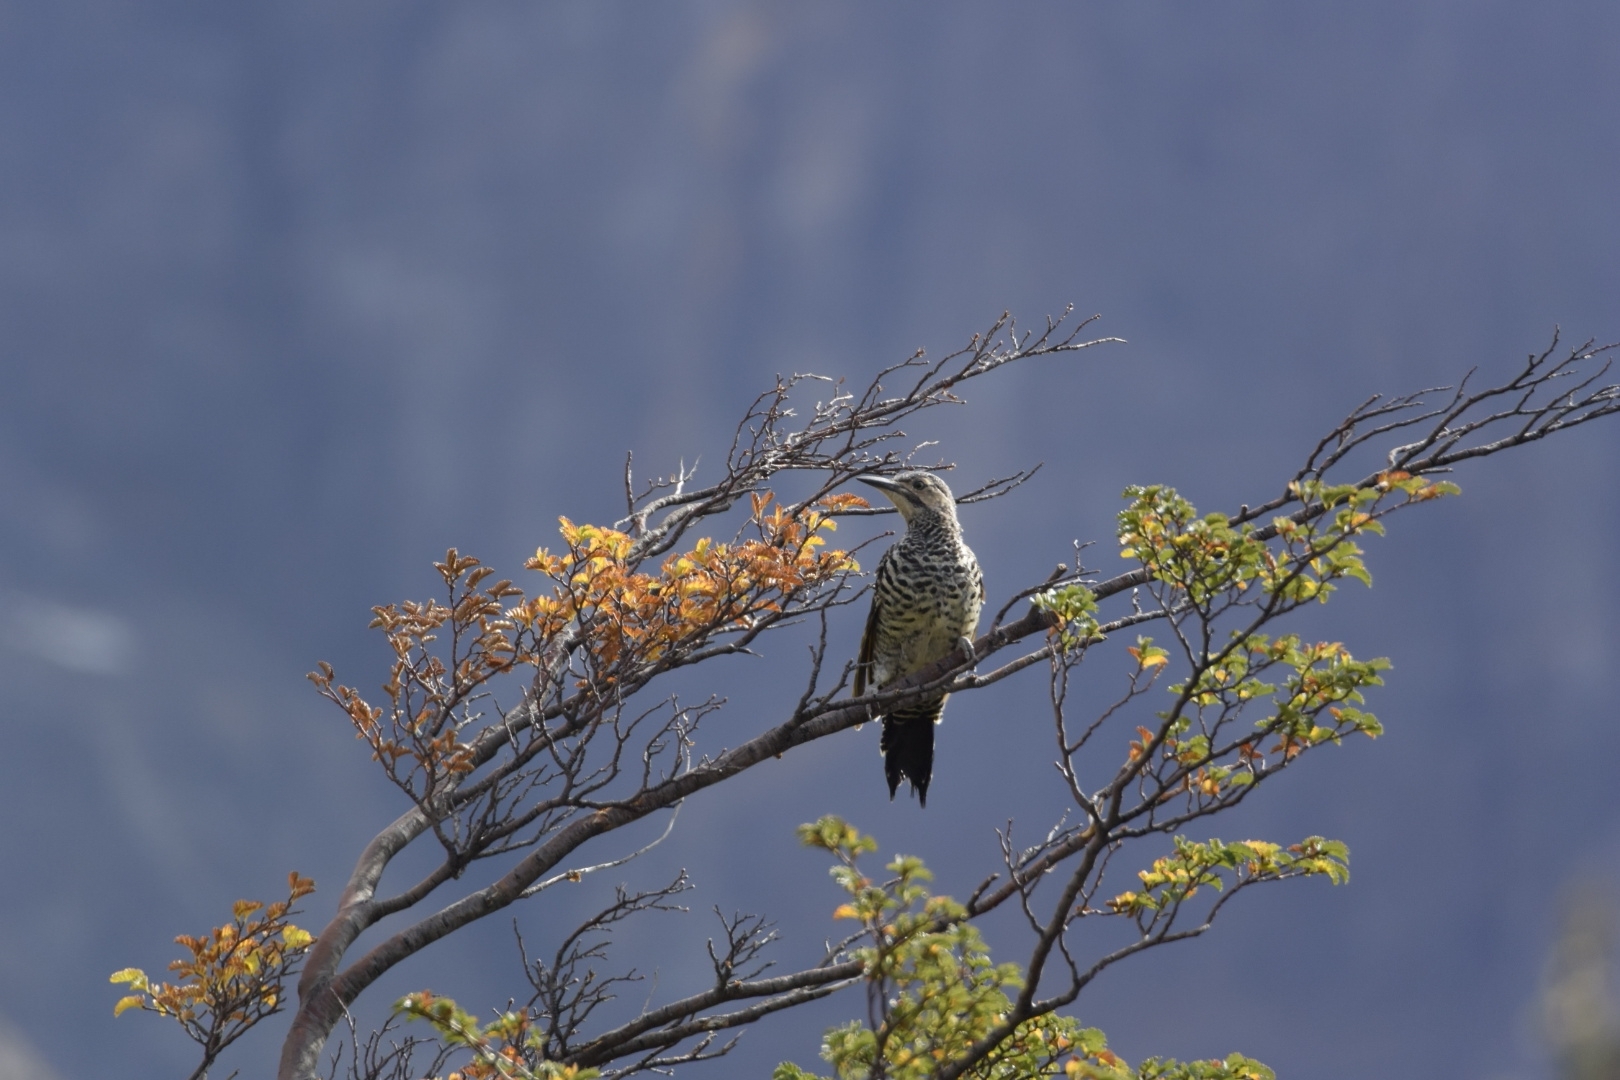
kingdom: Animalia
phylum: Chordata
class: Aves
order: Piciformes
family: Picidae
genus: Colaptes
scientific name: Colaptes pitius
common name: Chilean flicker
